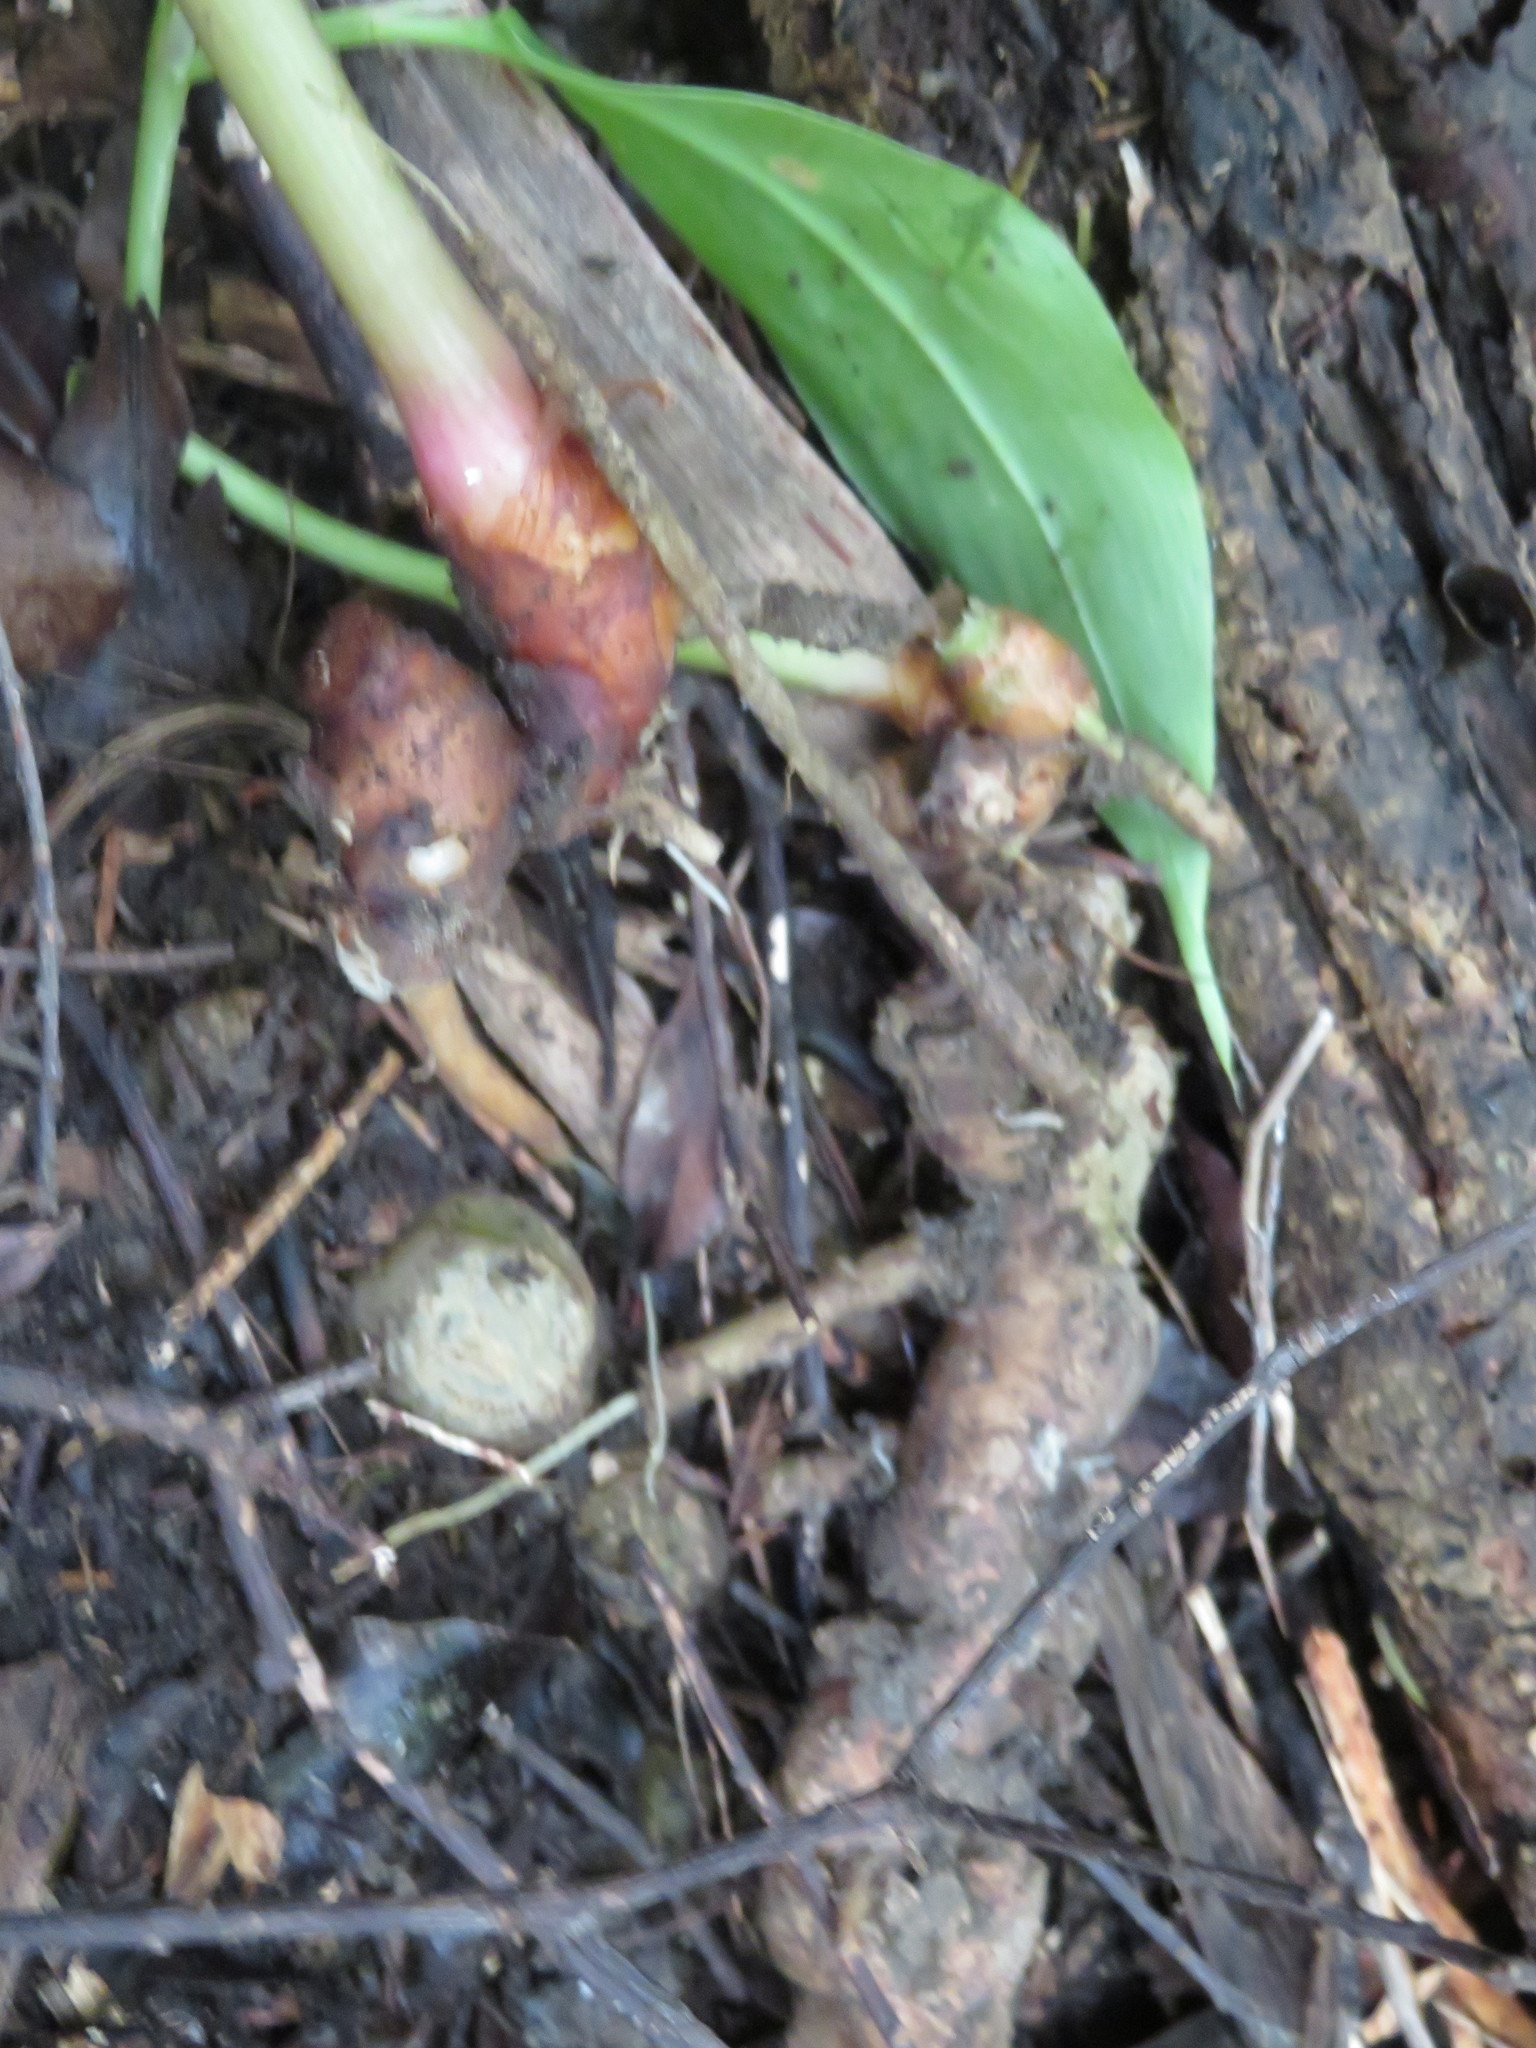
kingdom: Plantae
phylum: Tracheophyta
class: Liliopsida
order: Zingiberales
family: Zingiberaceae
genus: Hedychium
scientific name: Hedychium gardnerianum
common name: Himalayan ginger
